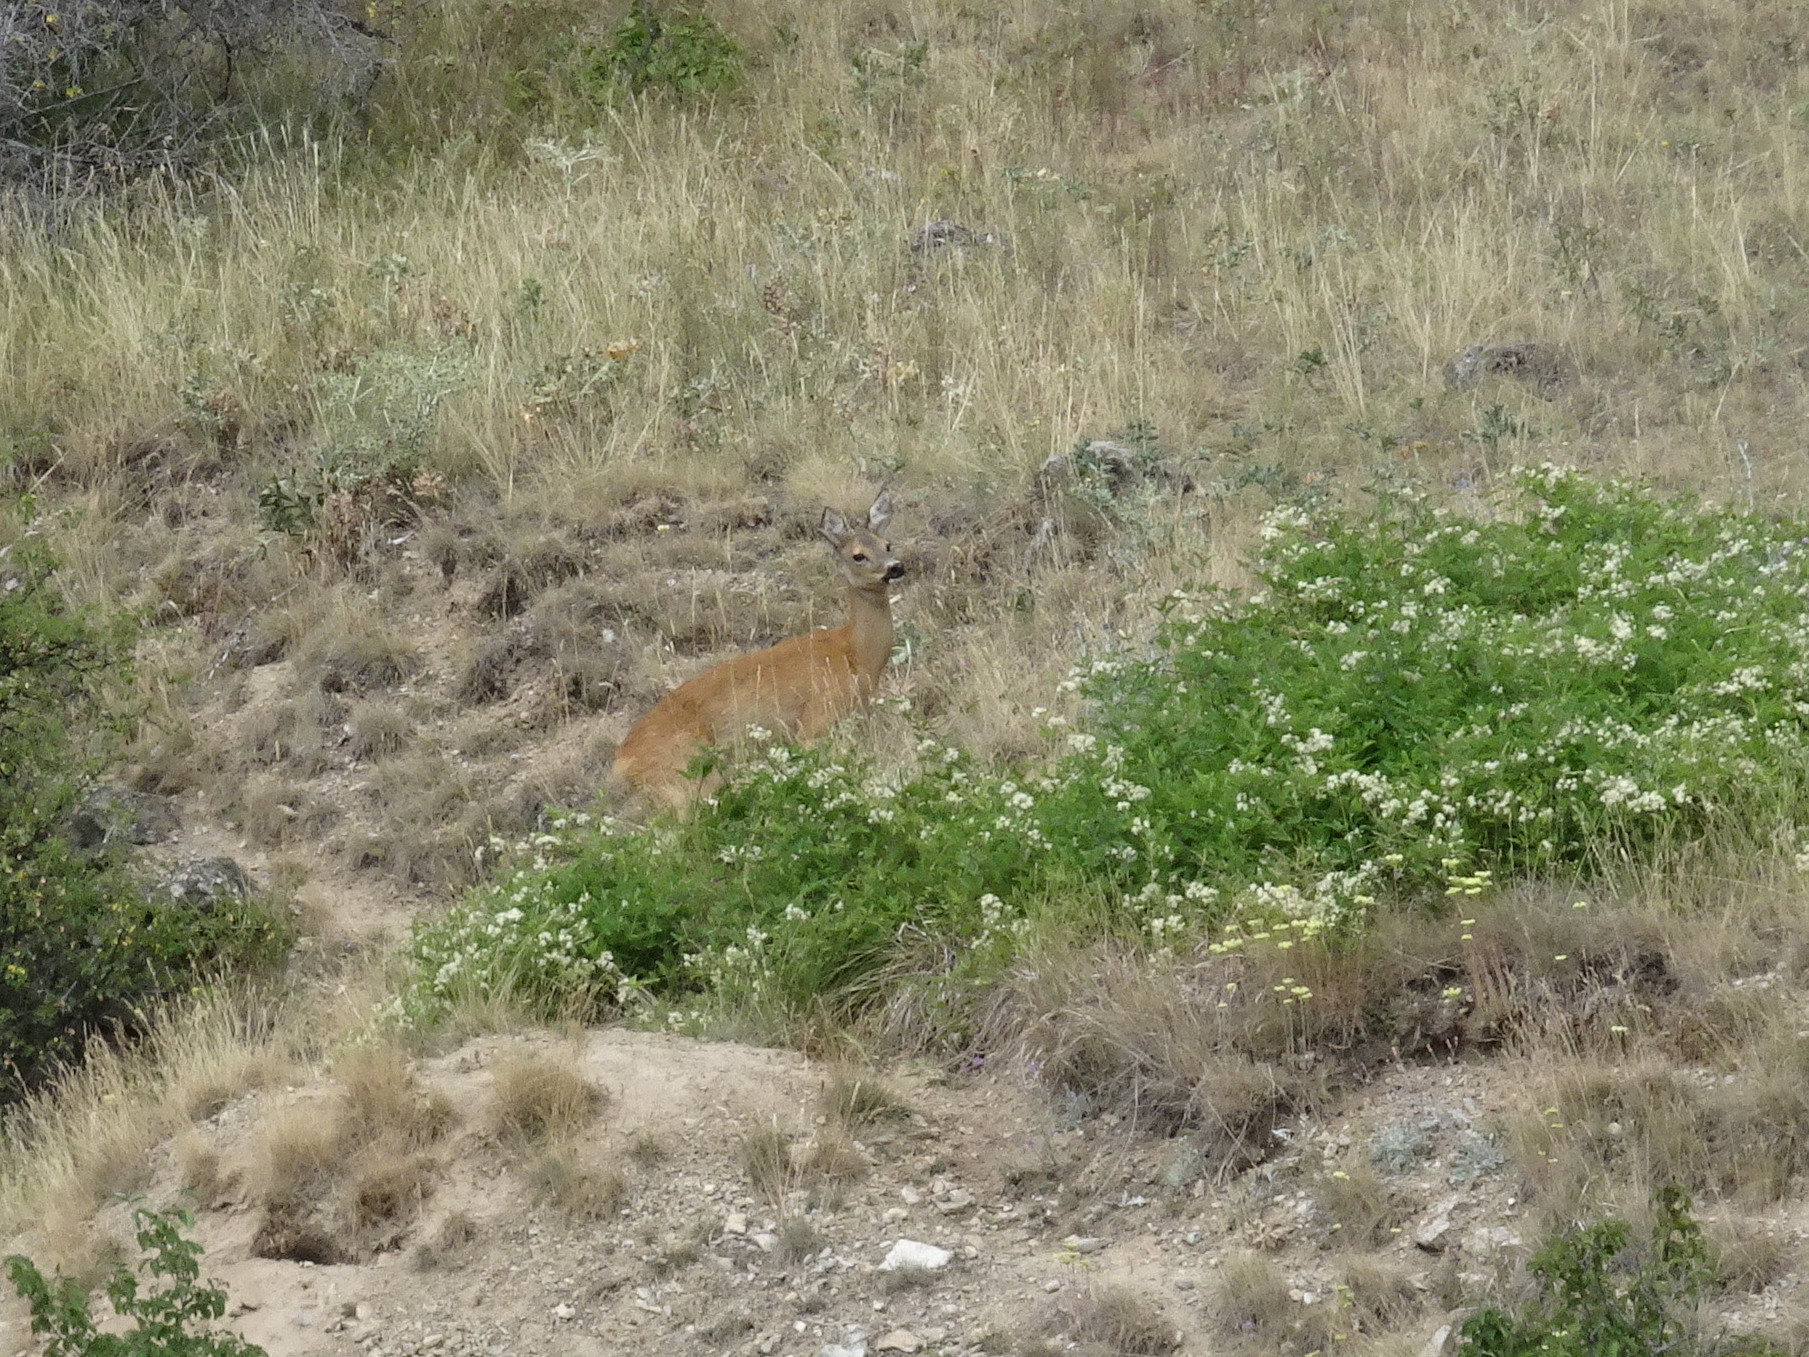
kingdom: Animalia
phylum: Chordata
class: Mammalia
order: Artiodactyla
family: Cervidae
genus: Capreolus
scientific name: Capreolus capreolus
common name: Western roe deer
